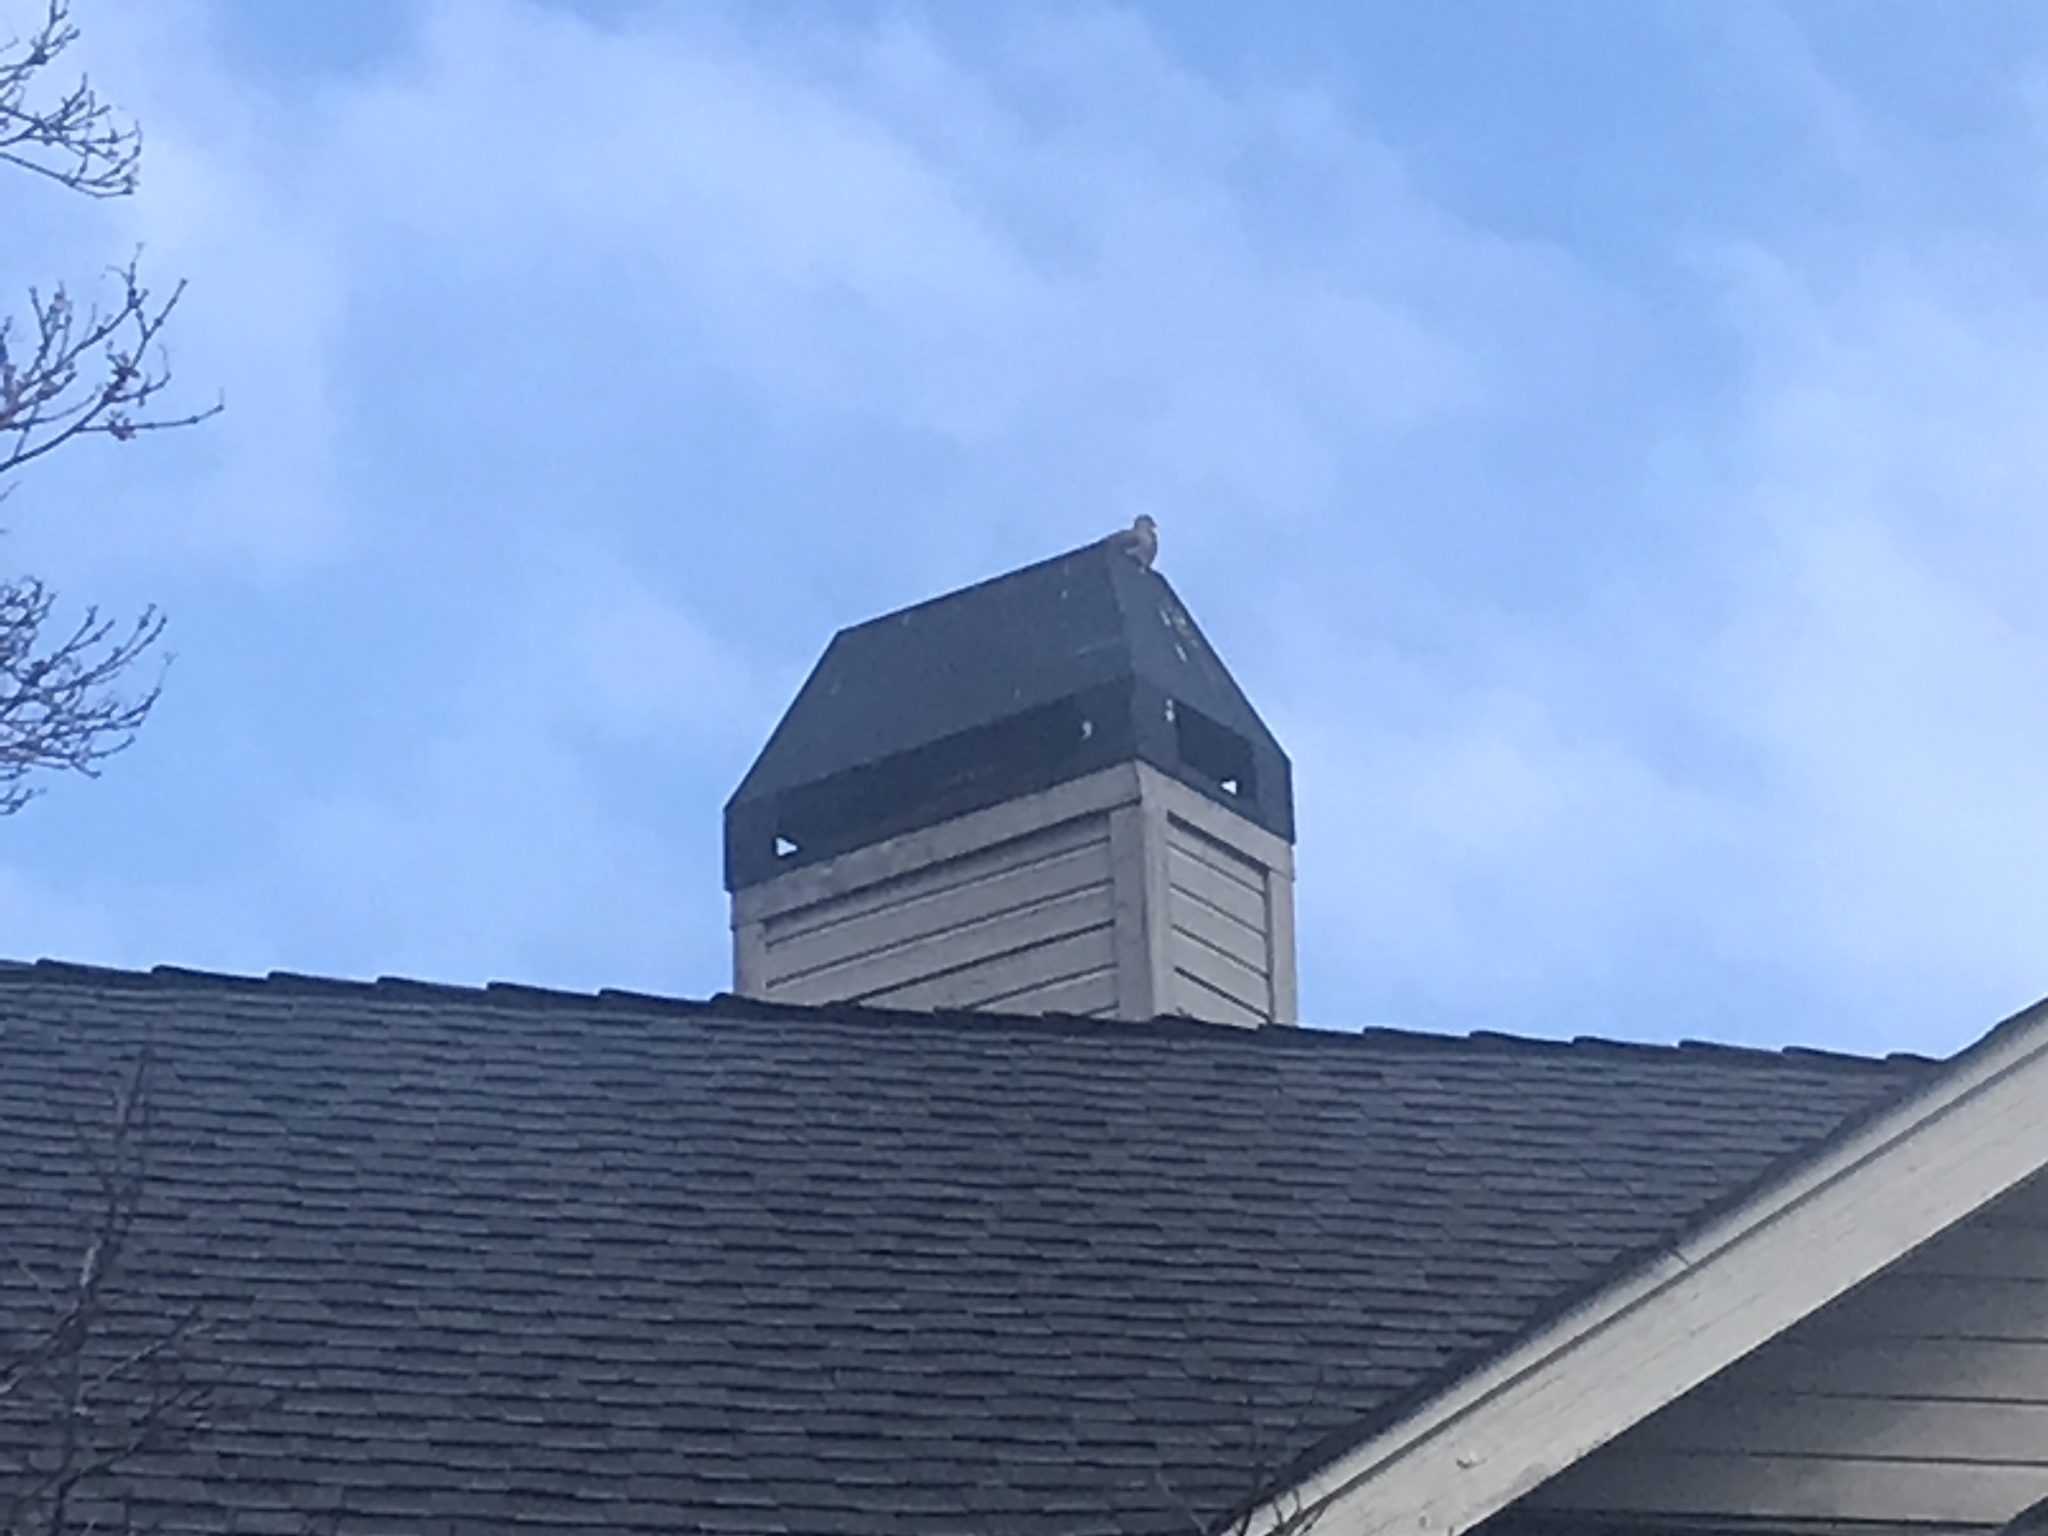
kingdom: Animalia
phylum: Chordata
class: Aves
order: Columbiformes
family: Columbidae
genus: Zenaida
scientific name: Zenaida macroura
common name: Mourning dove
